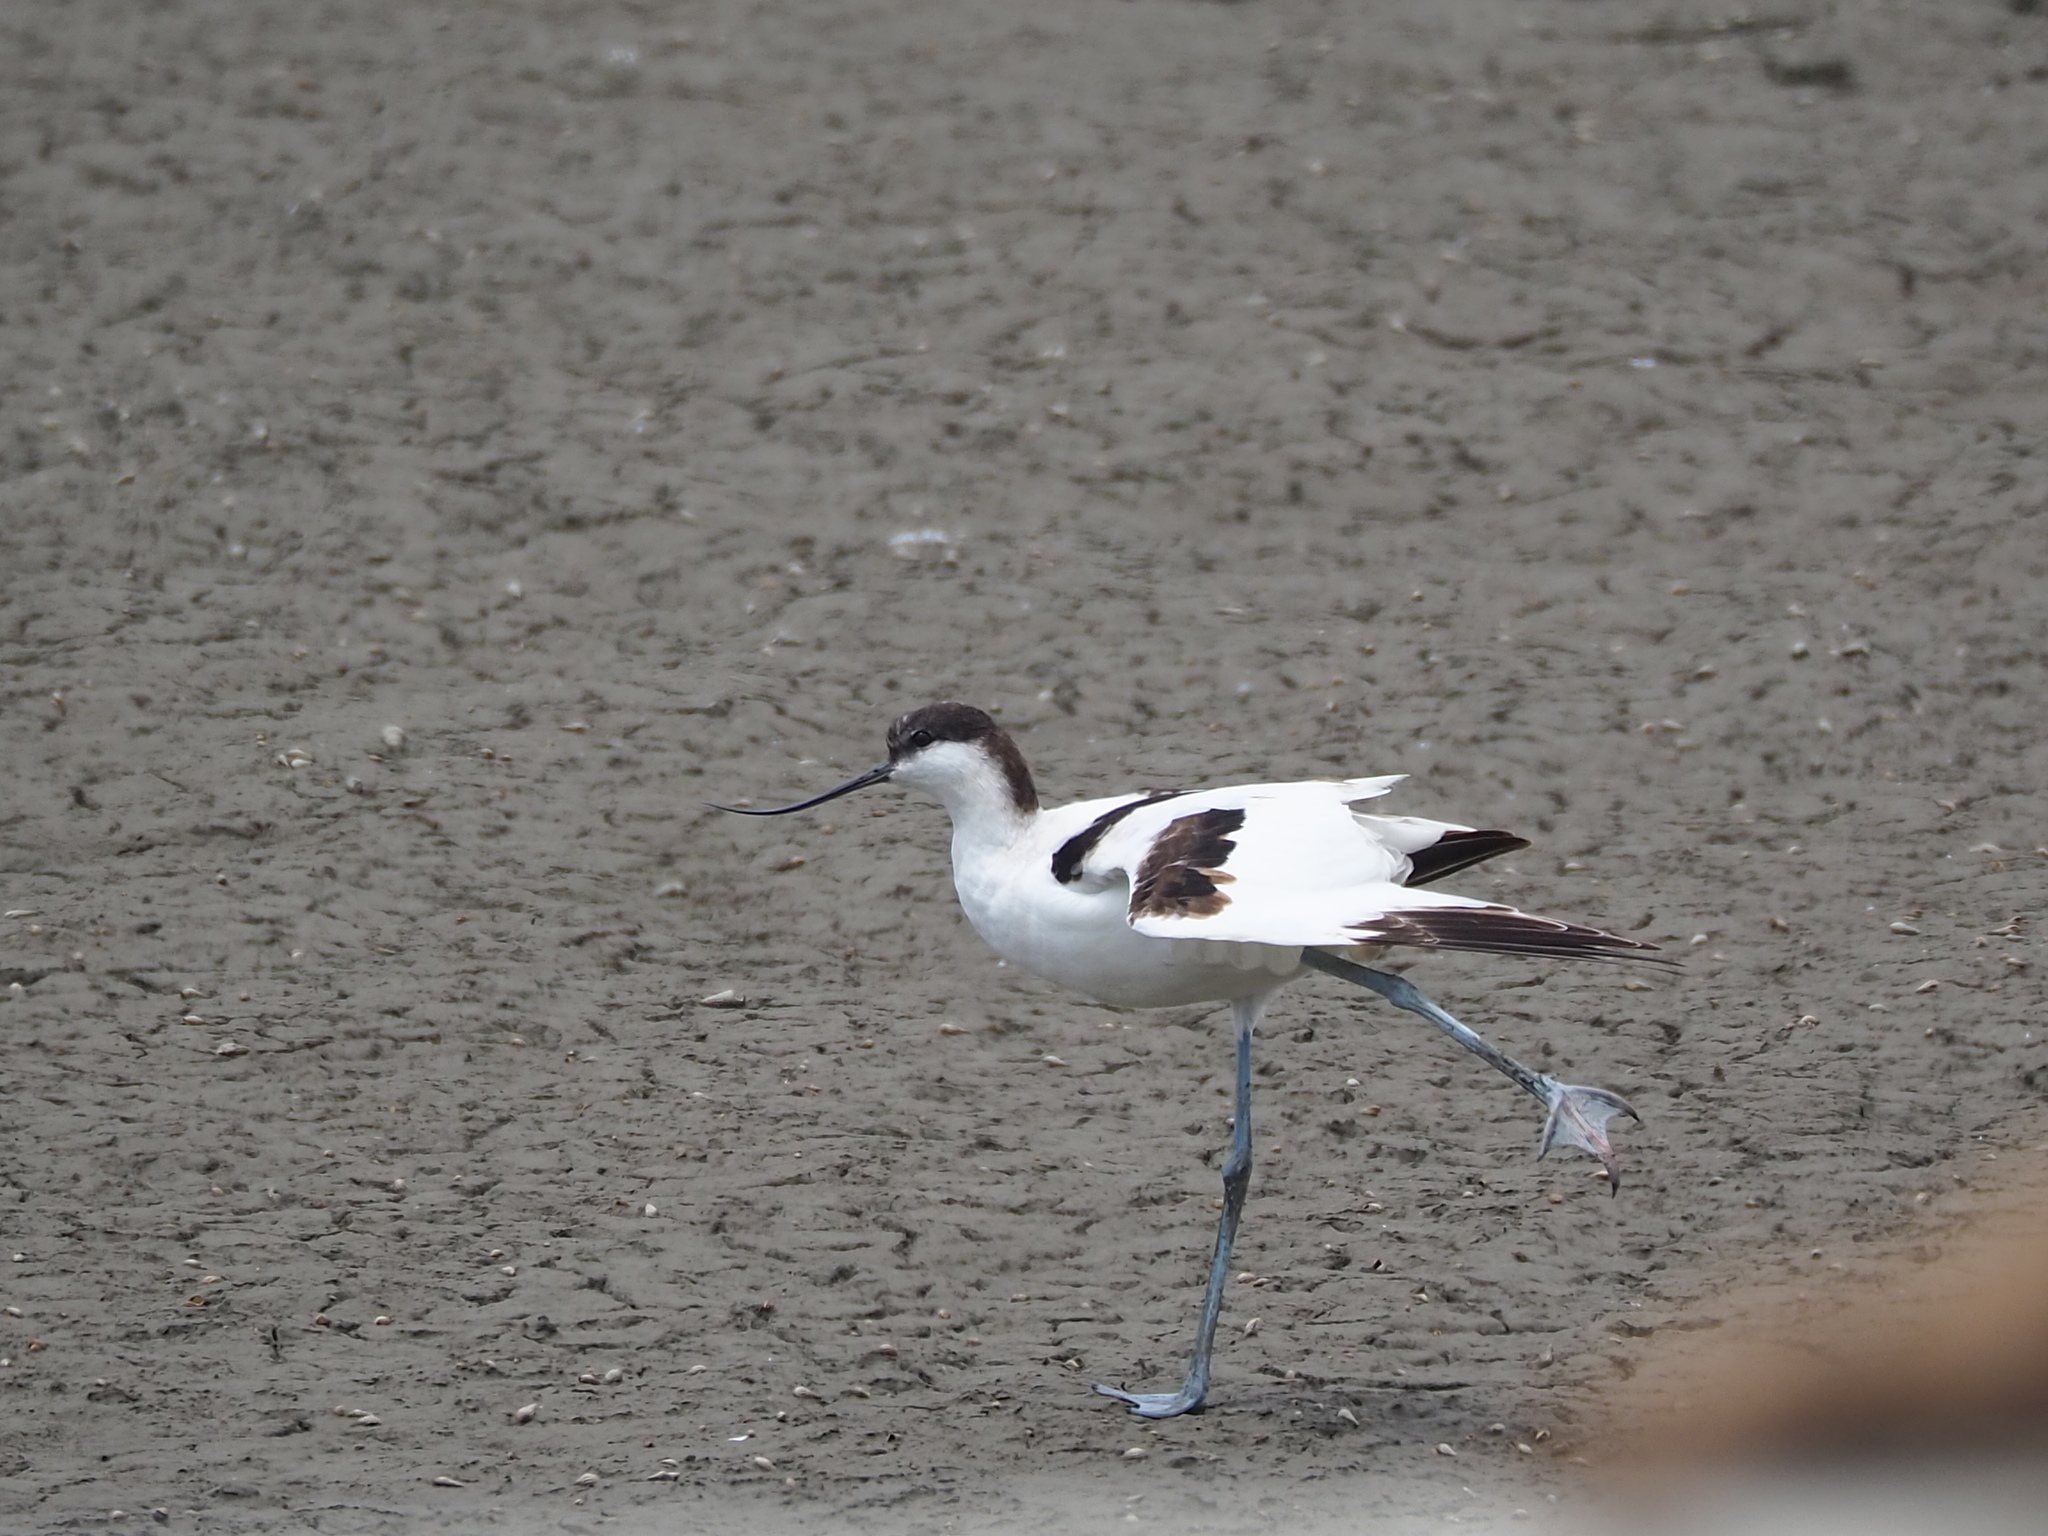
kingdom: Animalia
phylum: Chordata
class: Aves
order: Charadriiformes
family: Recurvirostridae
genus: Recurvirostra
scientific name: Recurvirostra avosetta
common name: Pied avocet
